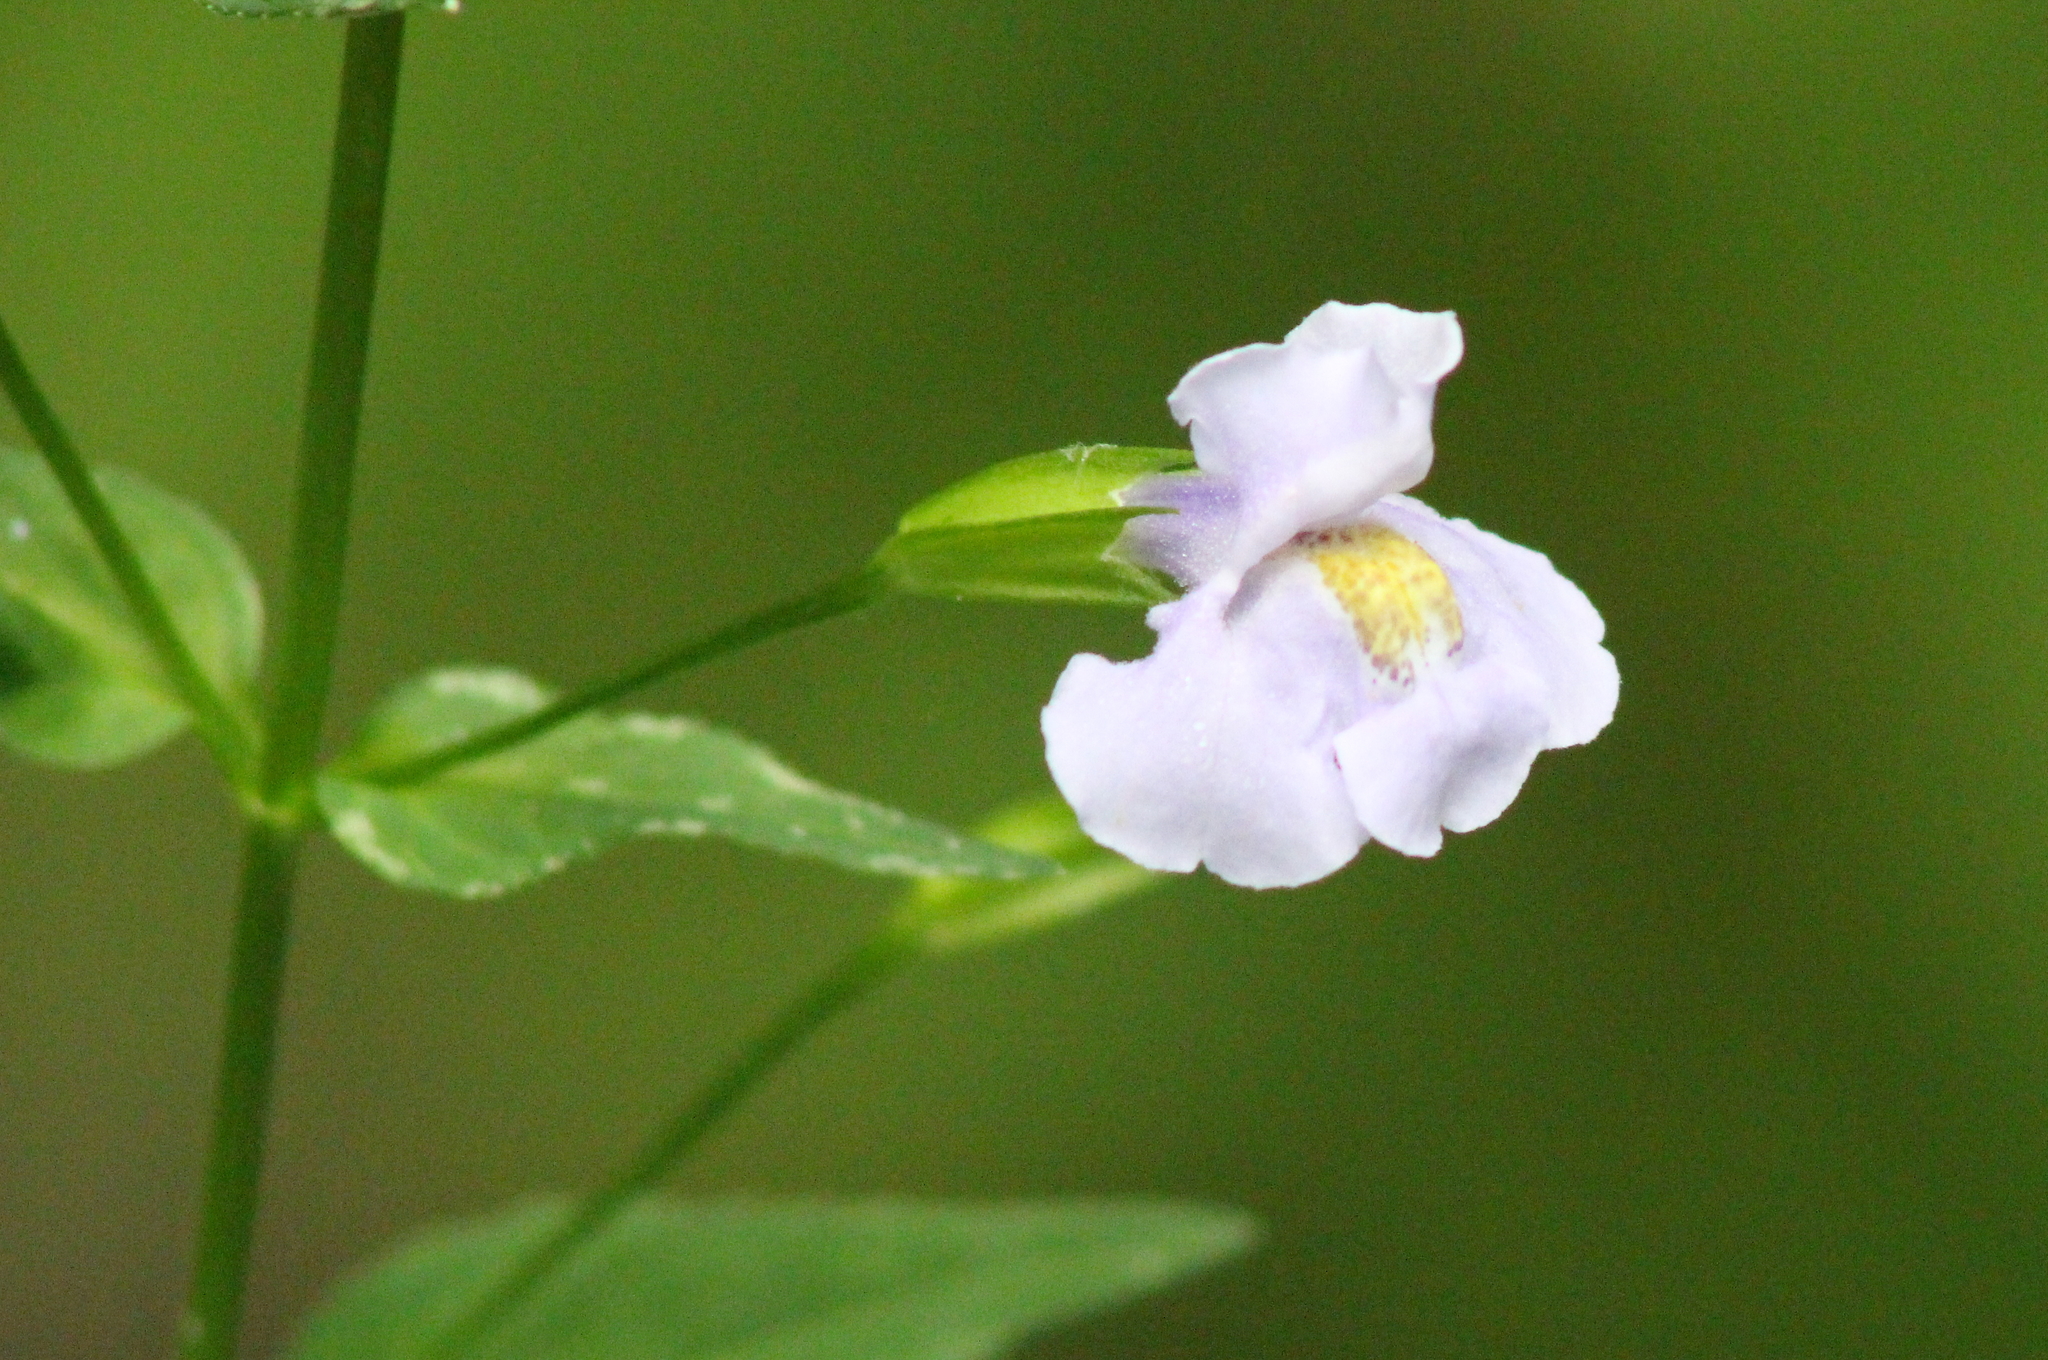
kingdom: Plantae
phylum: Tracheophyta
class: Magnoliopsida
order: Lamiales
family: Phrymaceae
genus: Mimulus
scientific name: Mimulus ringens
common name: Allegheny monkeyflower
